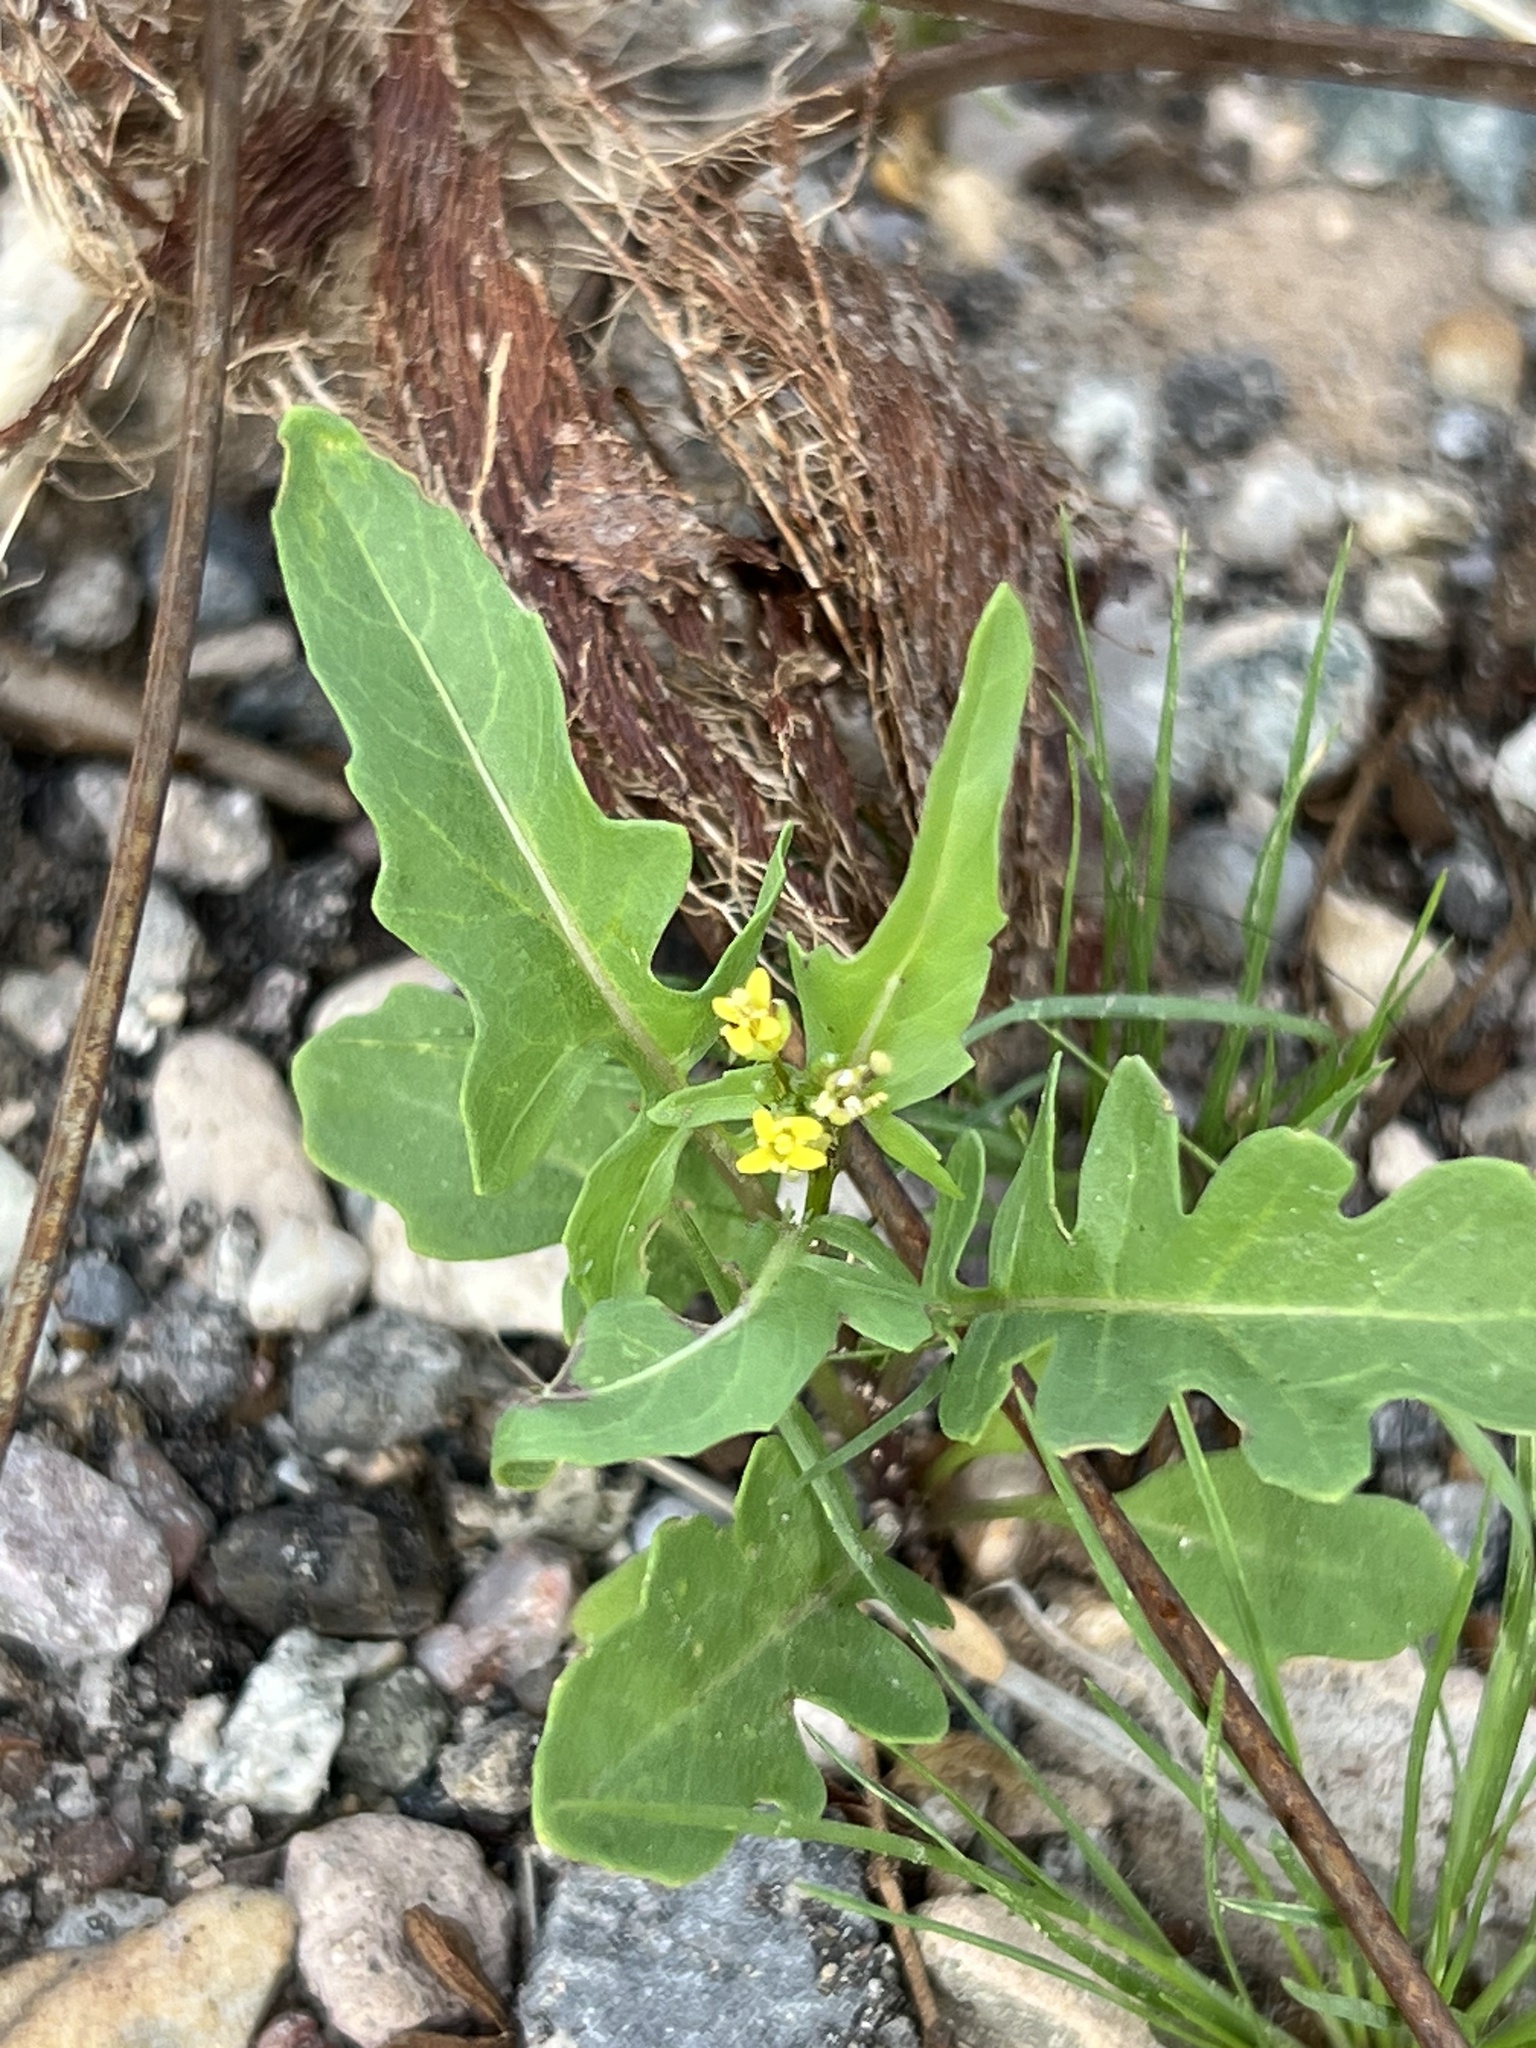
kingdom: Plantae
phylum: Tracheophyta
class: Magnoliopsida
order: Brassicales
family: Brassicaceae
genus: Sisymbrium
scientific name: Sisymbrium irio
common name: London rocket
